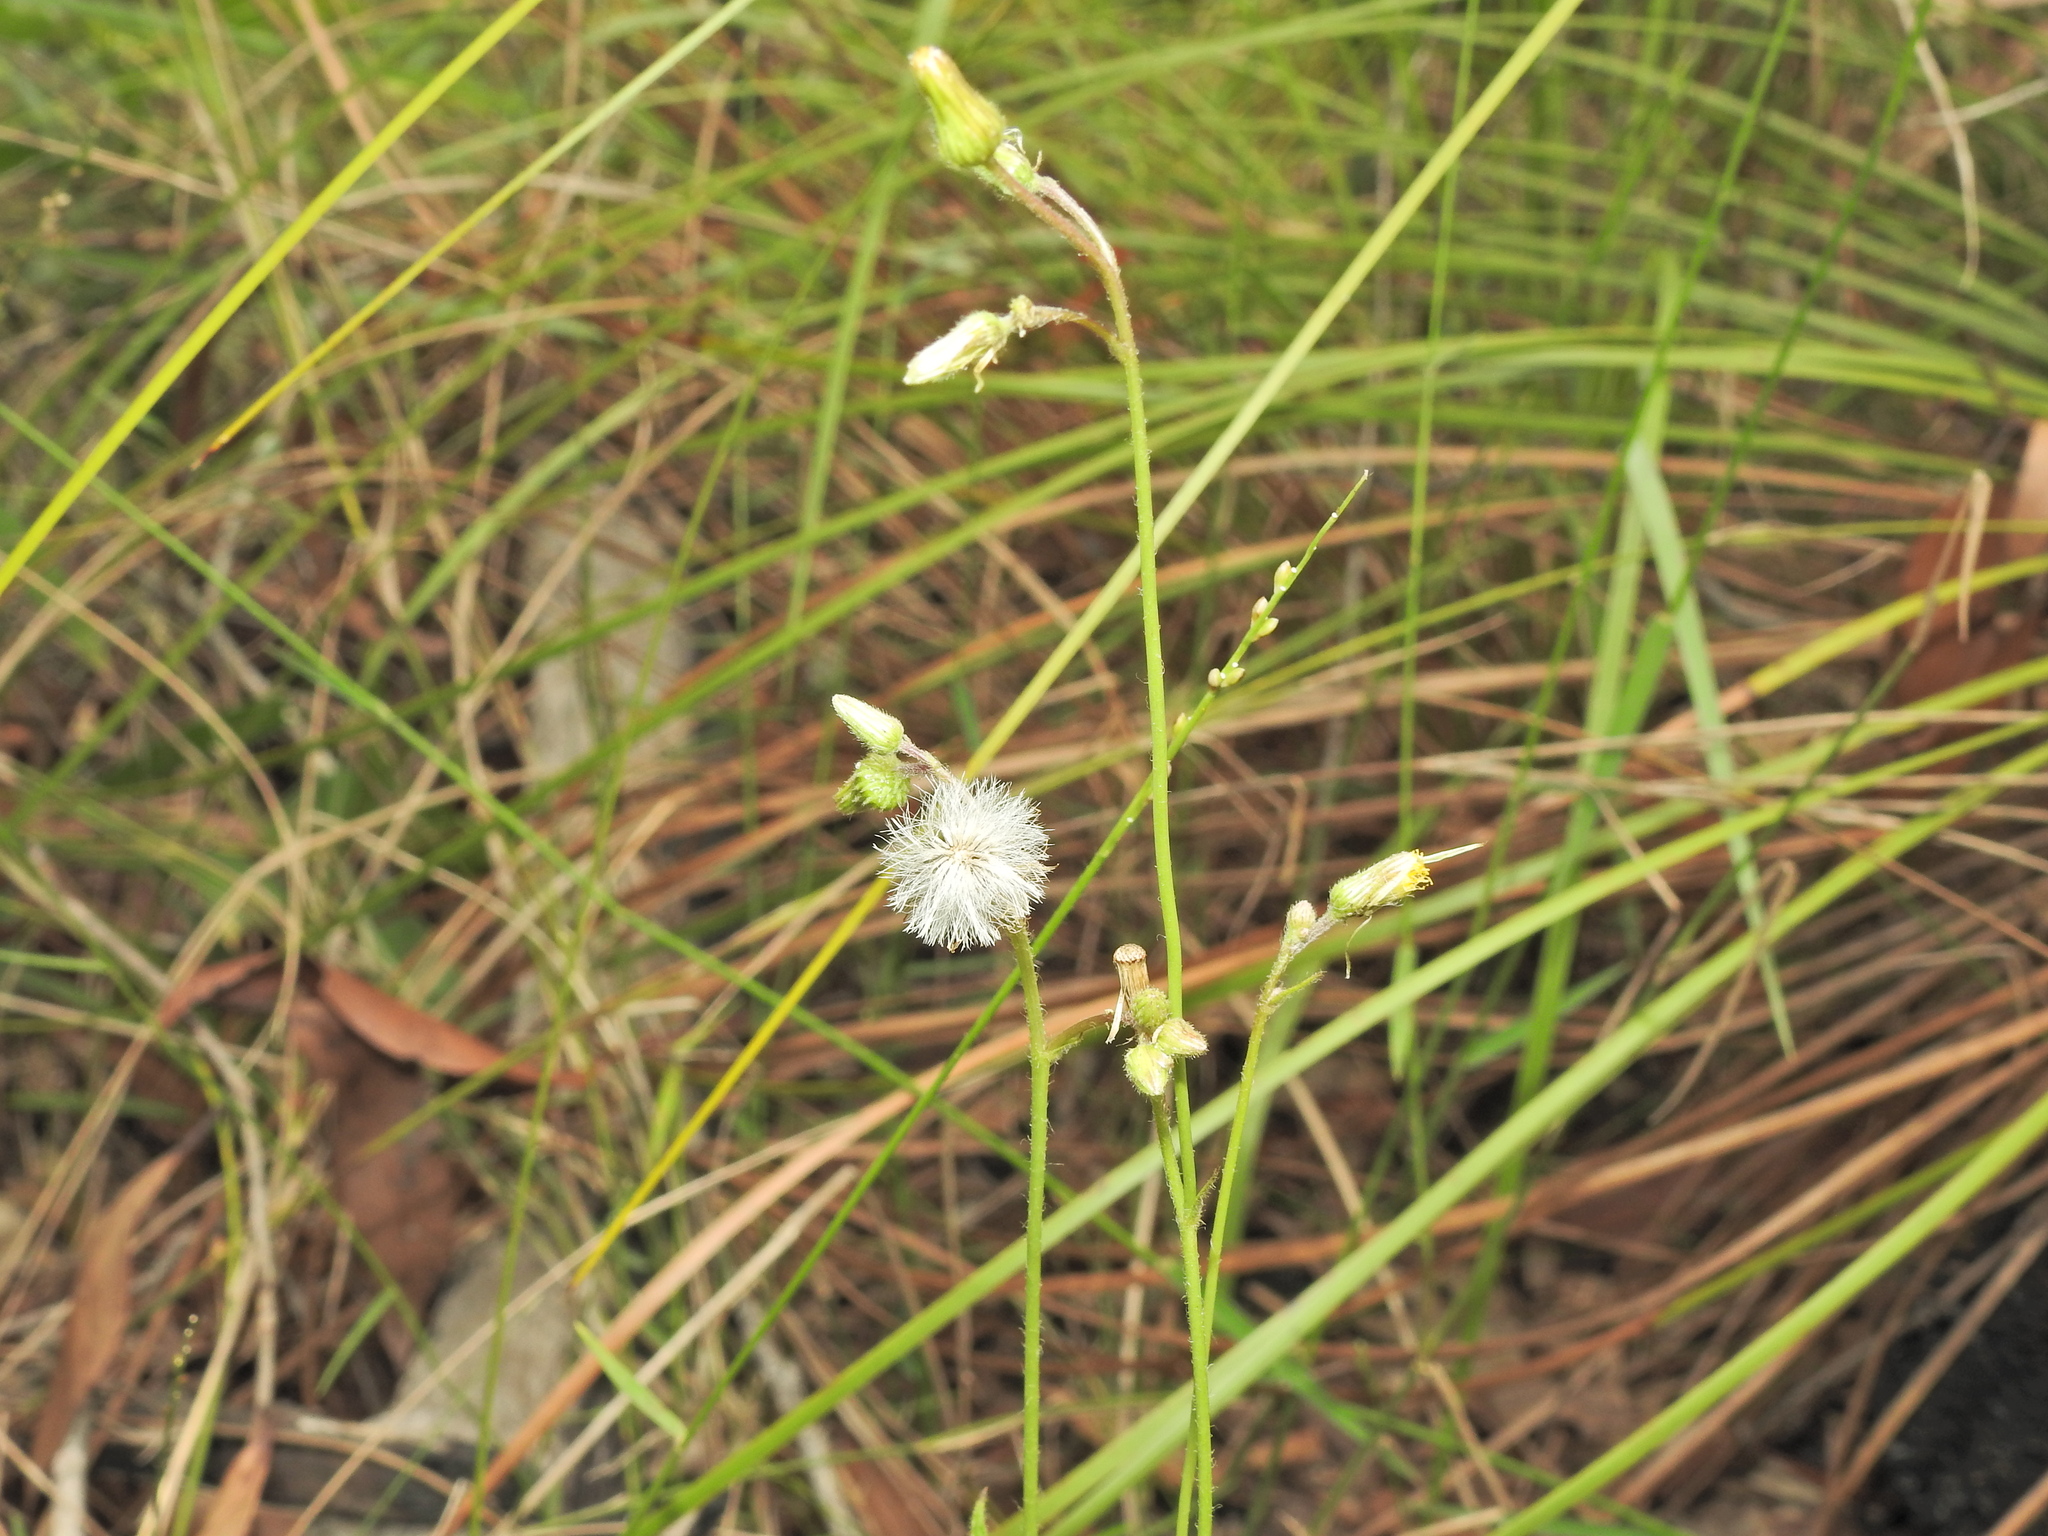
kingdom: Plantae
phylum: Tracheophyta
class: Magnoliopsida
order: Asterales
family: Asteraceae
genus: Blumea
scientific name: Blumea saxatilis
